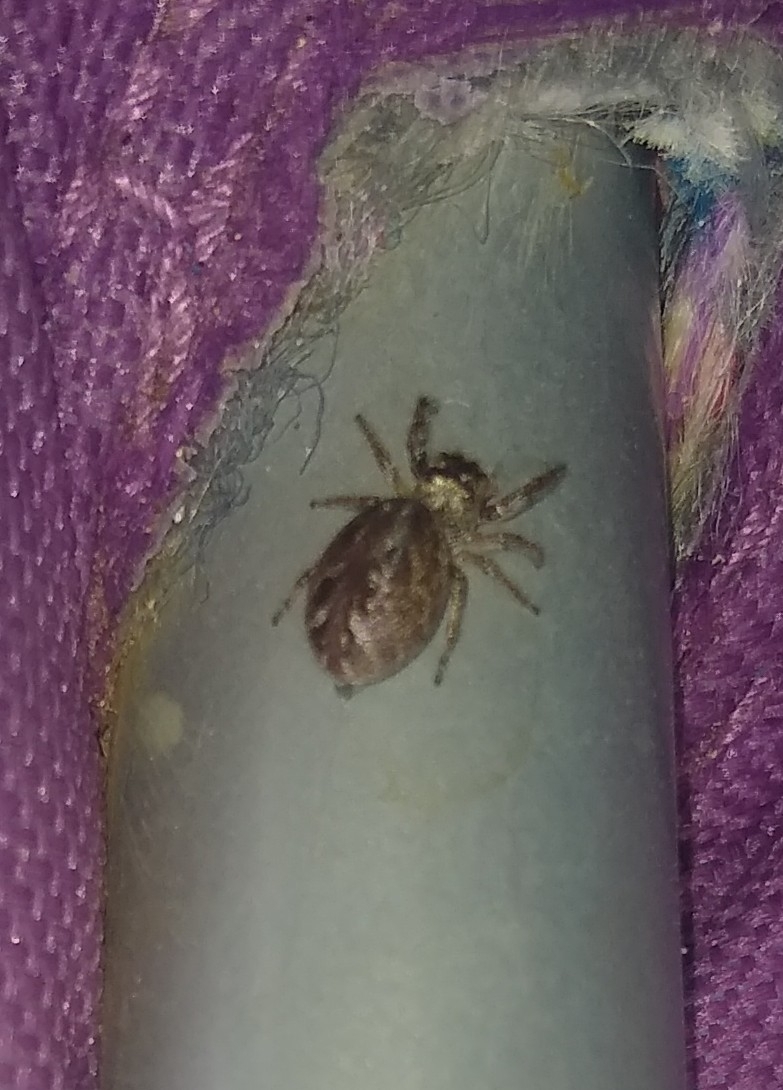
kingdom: Animalia
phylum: Arthropoda
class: Arachnida
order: Araneae
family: Salticidae
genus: Eris
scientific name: Eris militaris
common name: Bronze jumper
